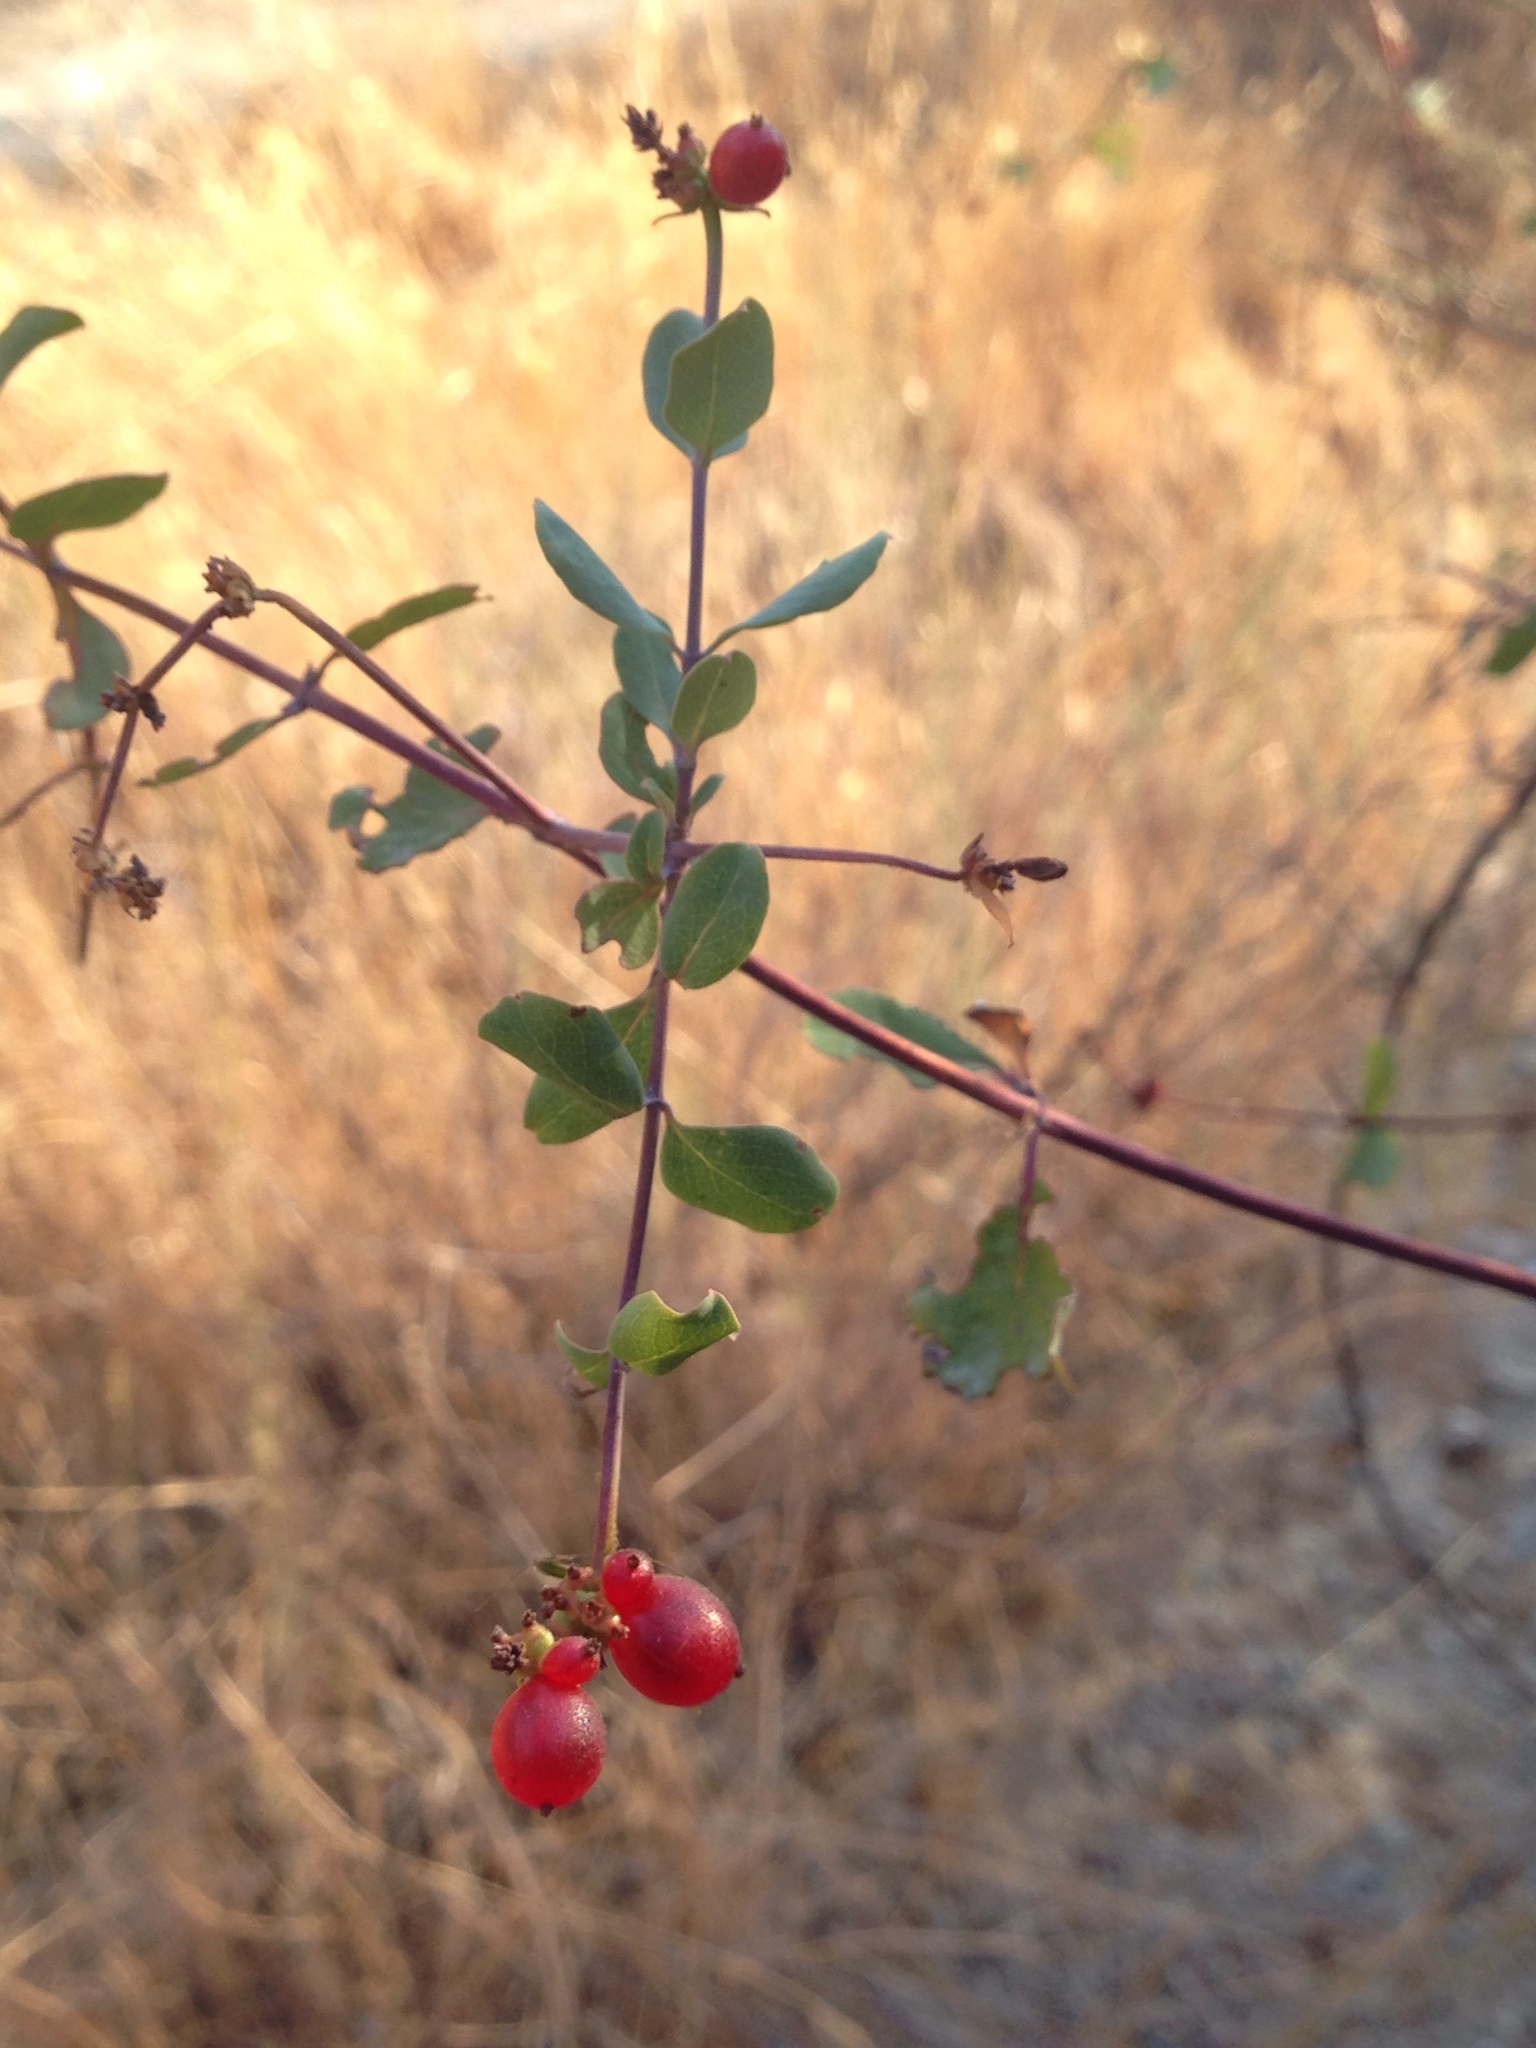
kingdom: Plantae
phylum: Tracheophyta
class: Magnoliopsida
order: Dipsacales
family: Caprifoliaceae
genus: Lonicera
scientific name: Lonicera subspicata
